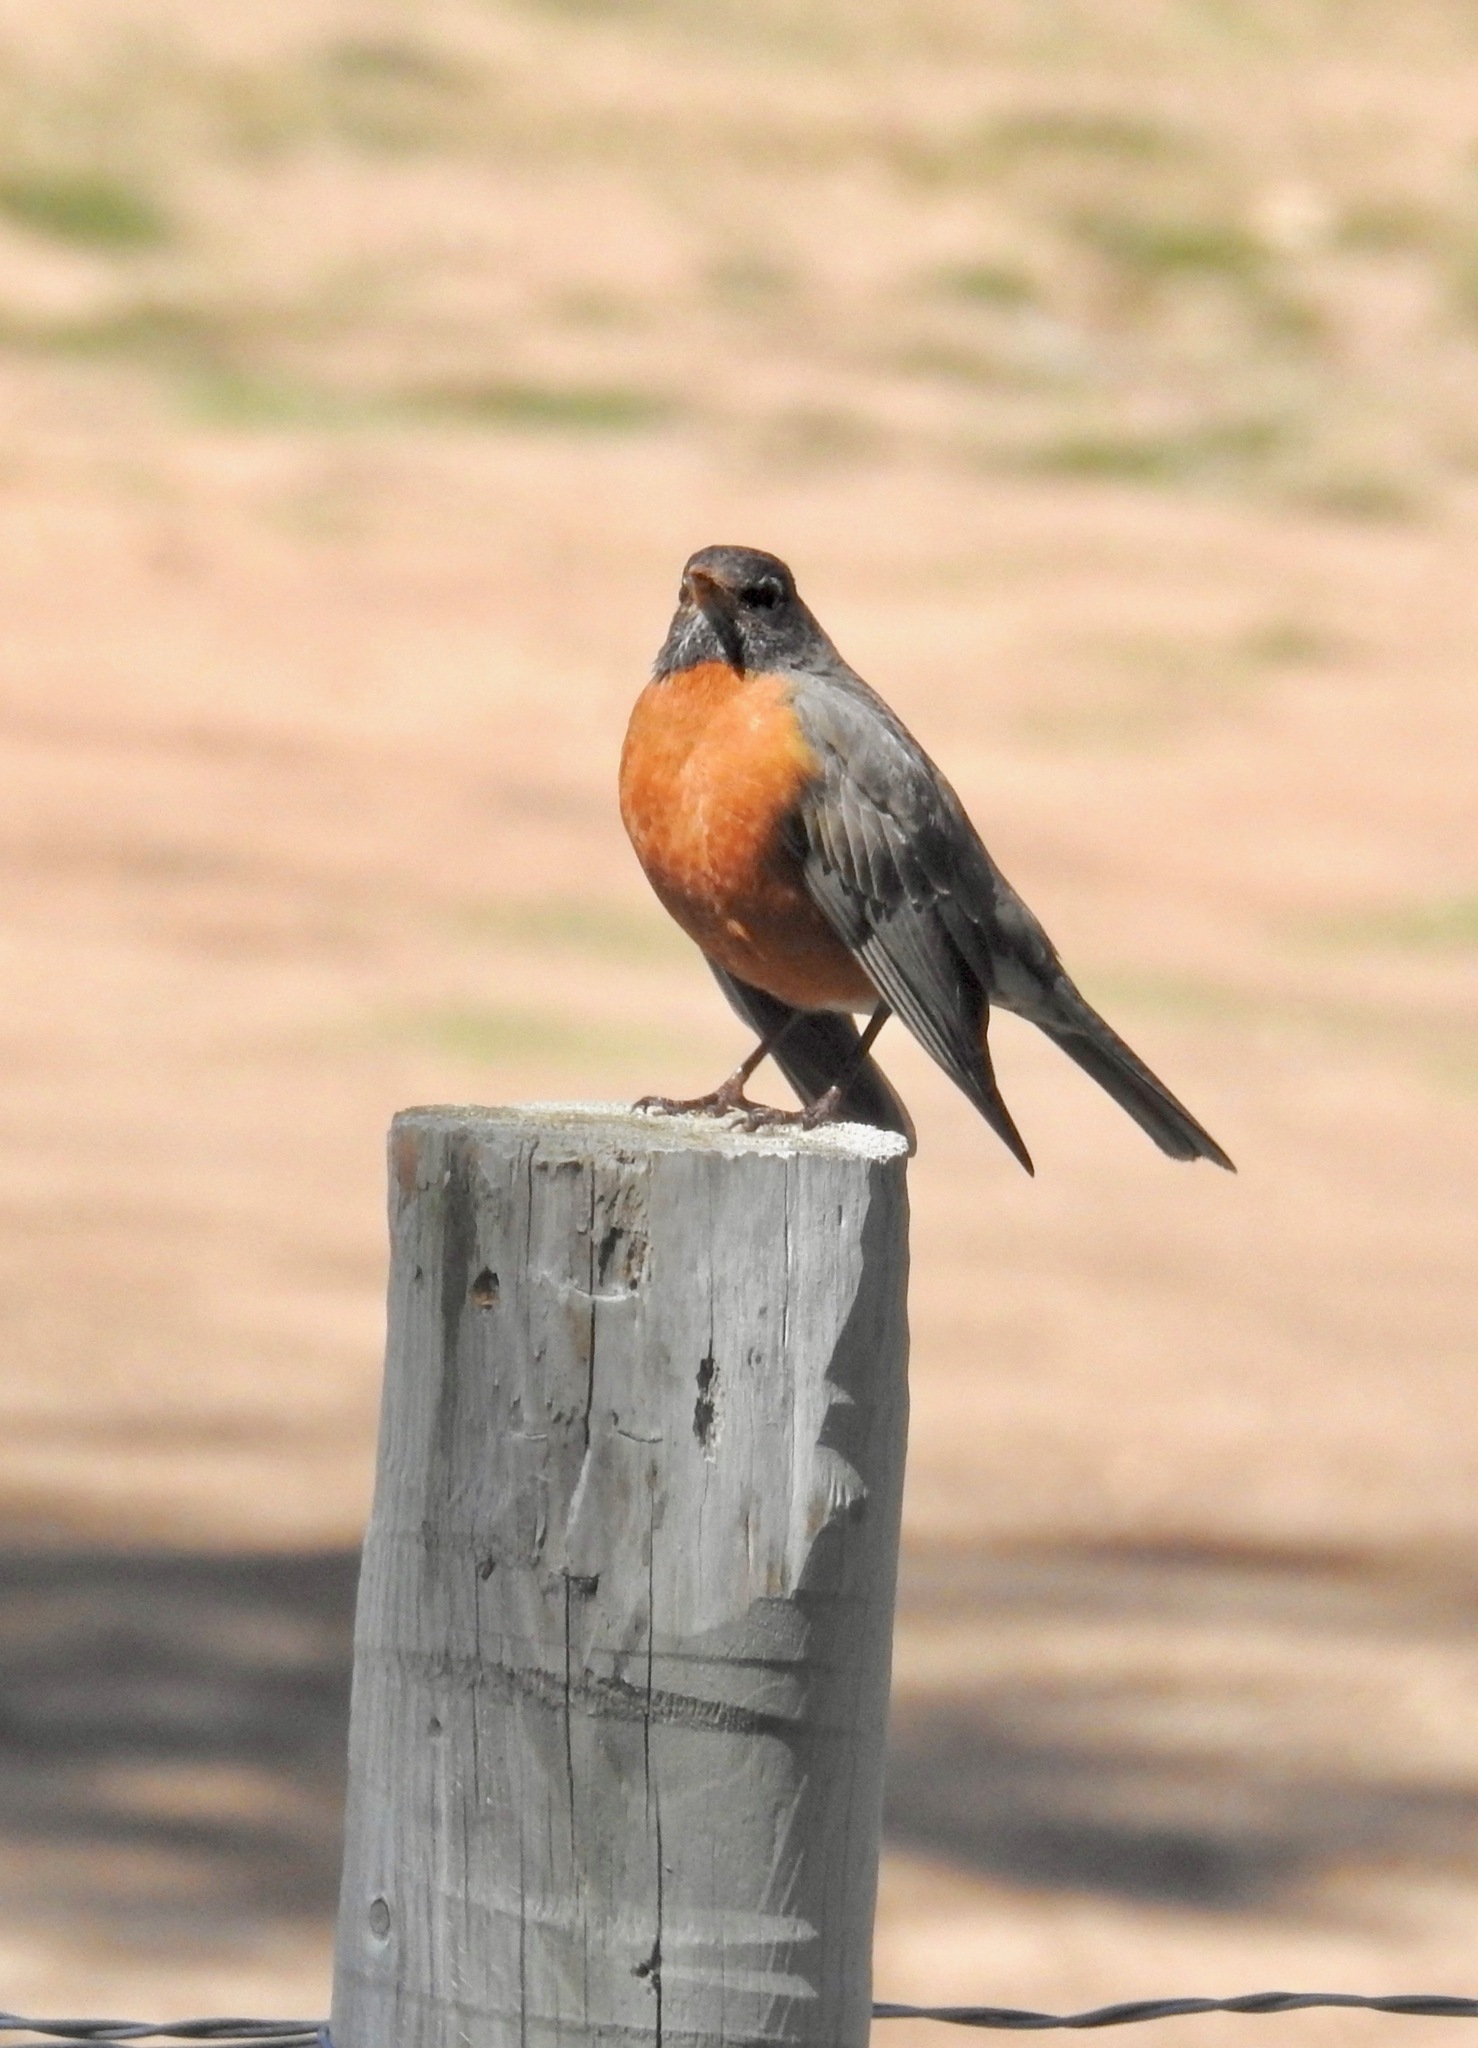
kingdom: Animalia
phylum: Chordata
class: Aves
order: Passeriformes
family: Turdidae
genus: Turdus
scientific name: Turdus migratorius
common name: American robin
